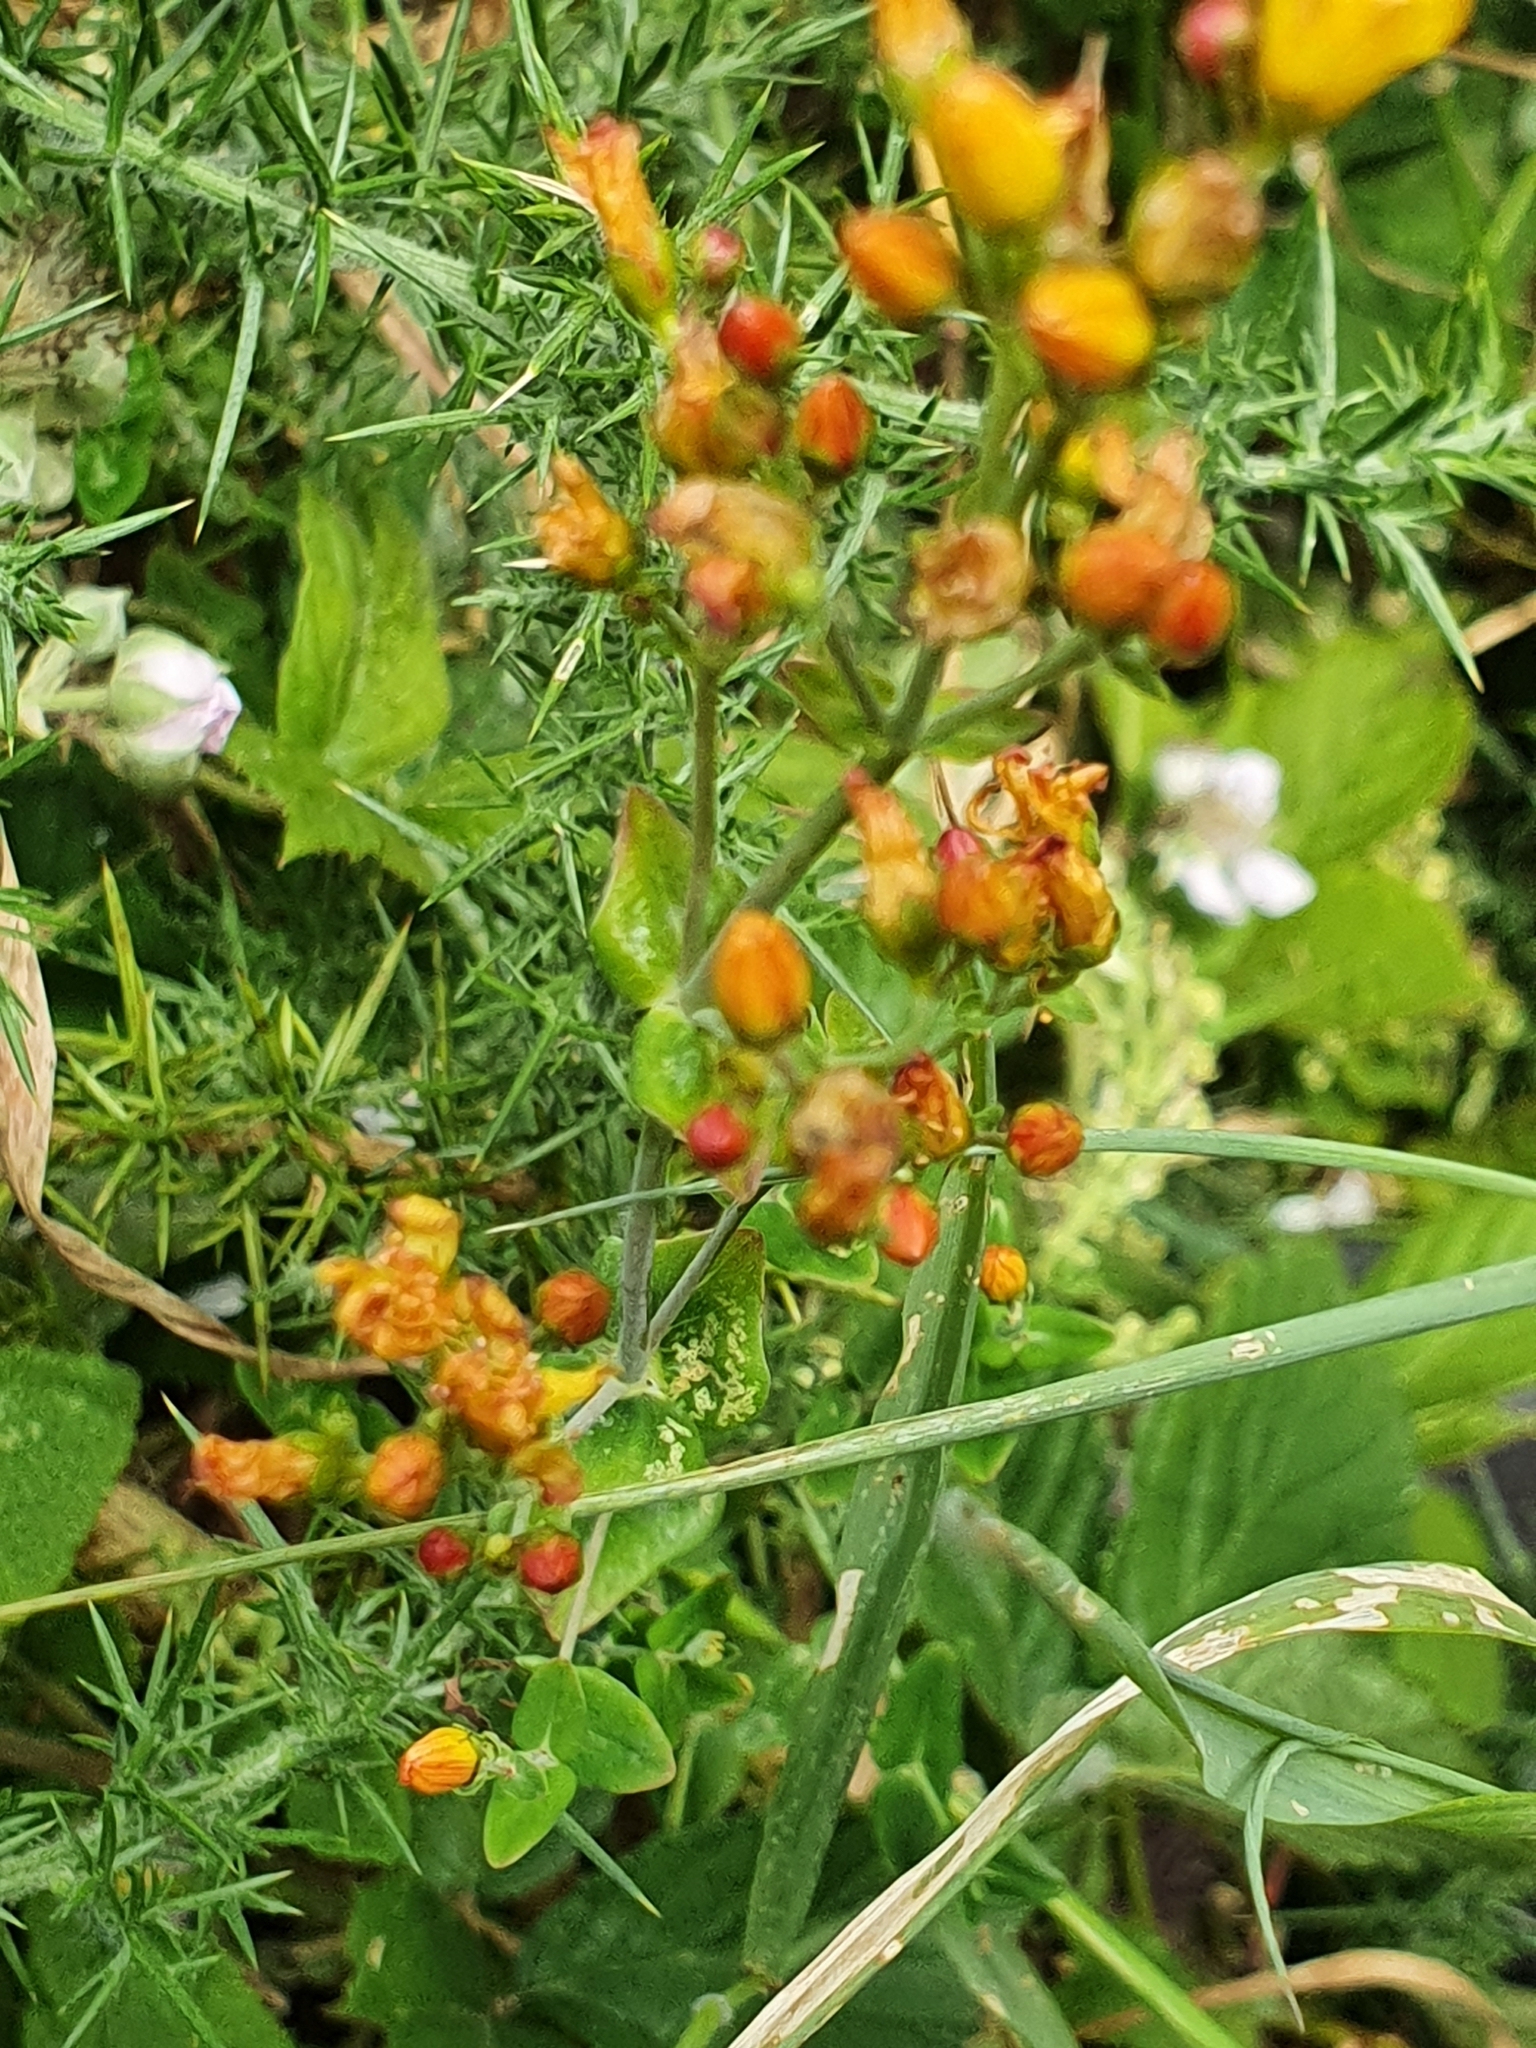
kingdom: Plantae
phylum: Tracheophyta
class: Magnoliopsida
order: Malpighiales
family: Hypericaceae
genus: Hypericum
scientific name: Hypericum pulchrum
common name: Slender st. john's-wort
